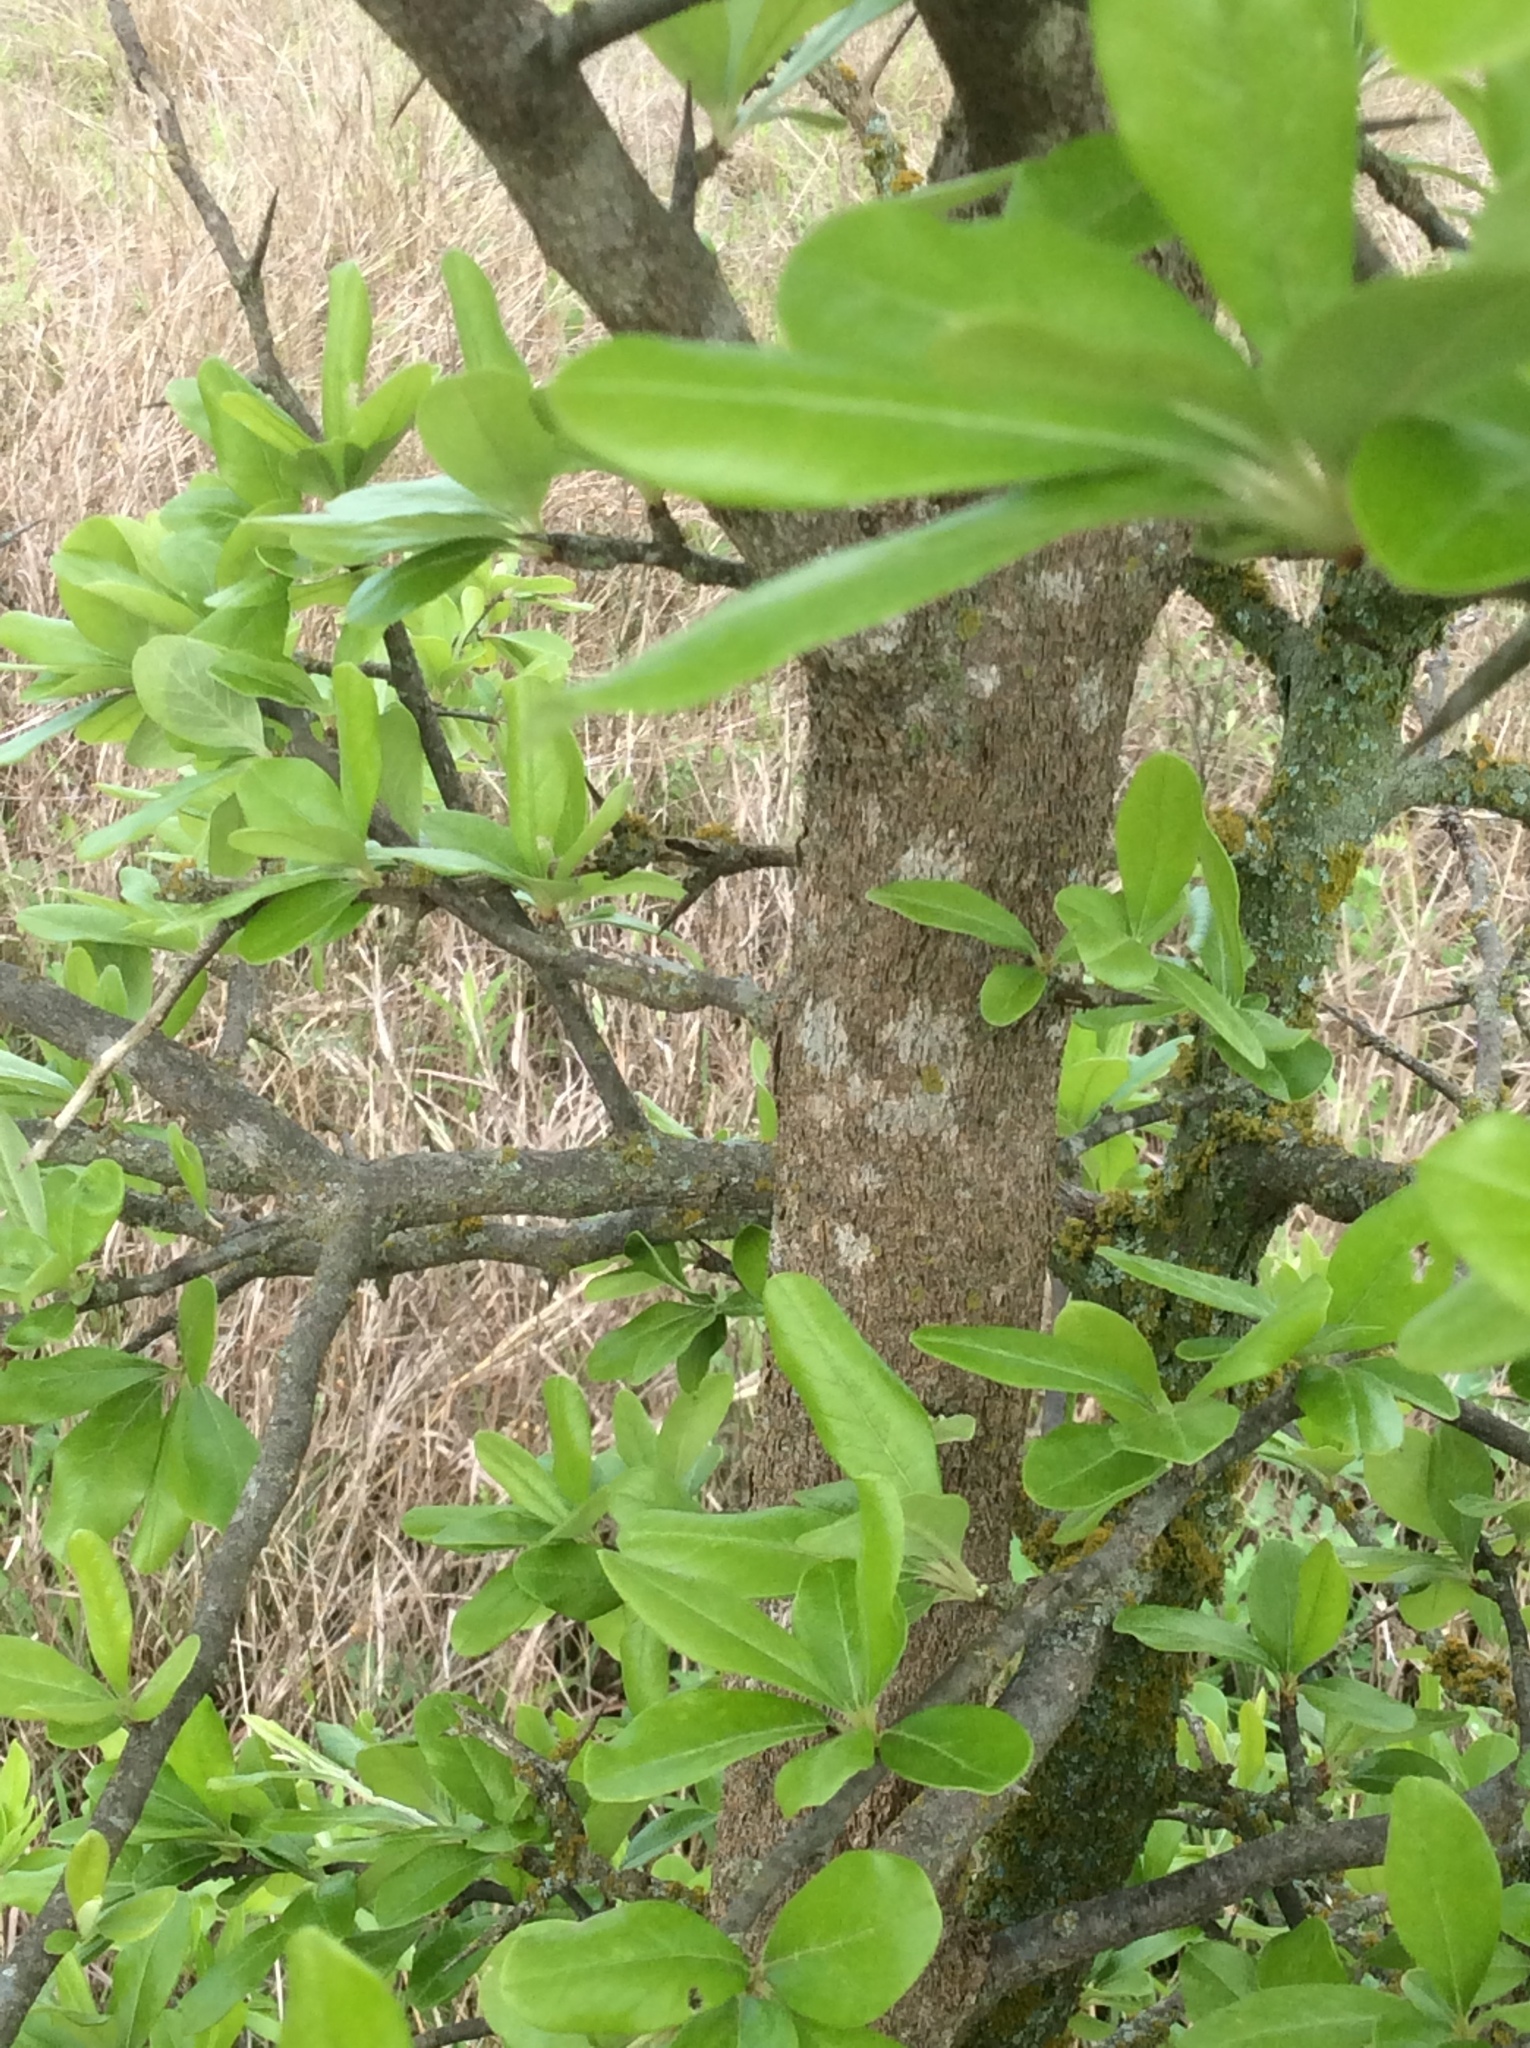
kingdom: Plantae
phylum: Tracheophyta
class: Magnoliopsida
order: Ericales
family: Sapotaceae
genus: Sideroxylon
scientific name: Sideroxylon lanuginosum
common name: Chittamwood
